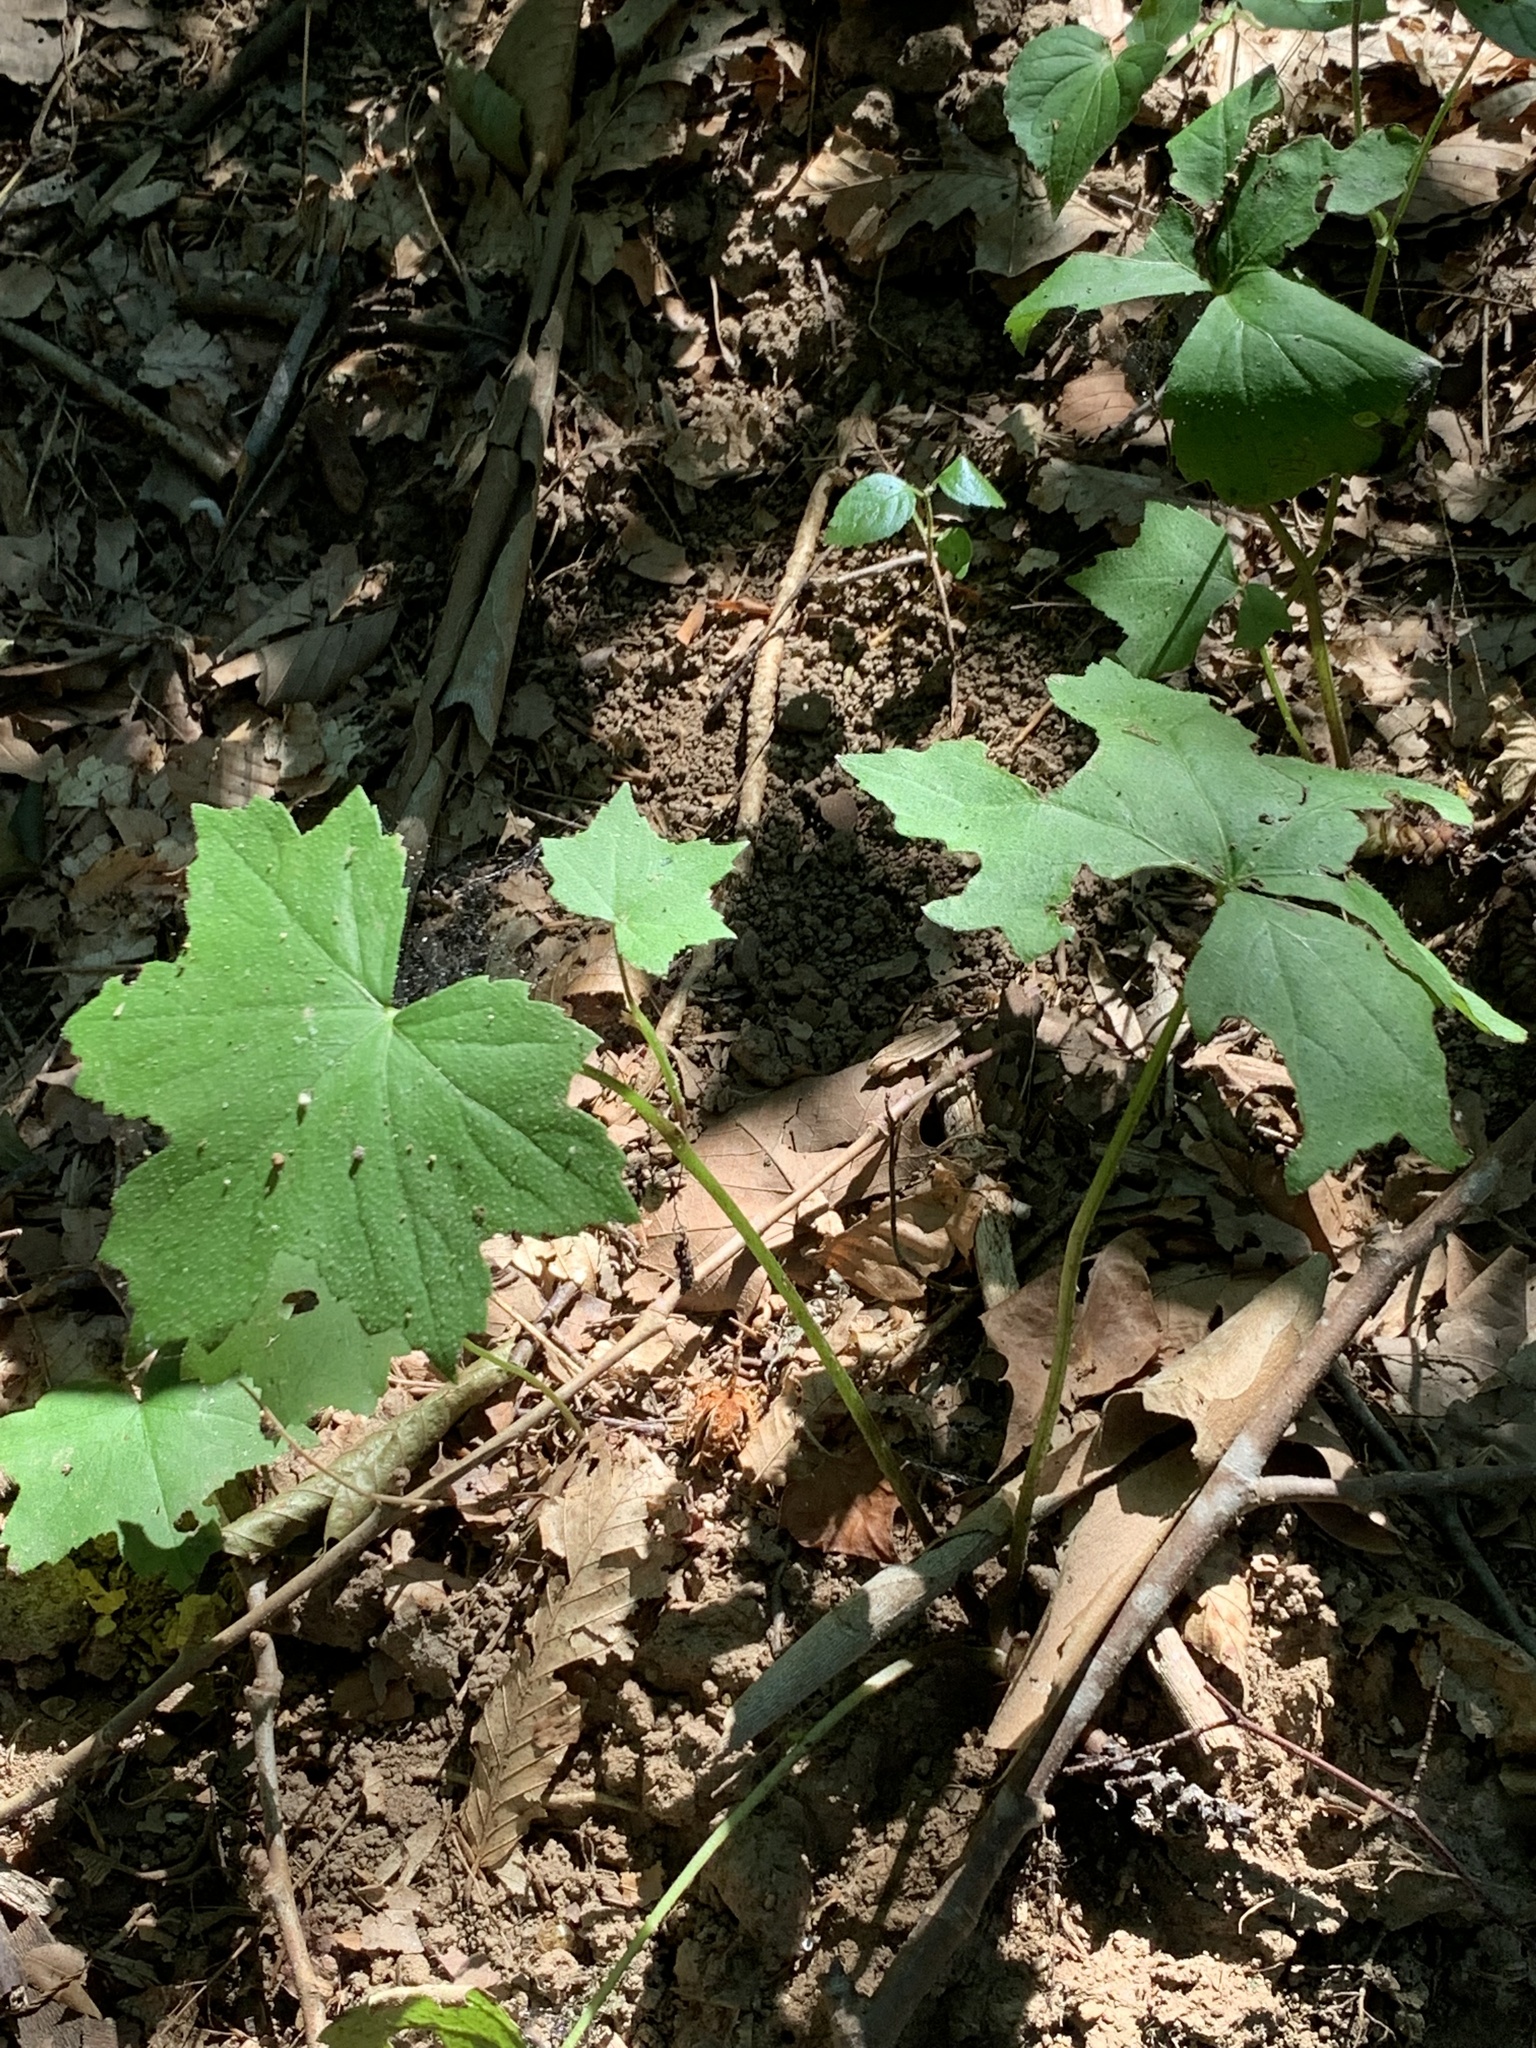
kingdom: Plantae
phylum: Tracheophyta
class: Magnoliopsida
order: Boraginales
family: Hydrophyllaceae
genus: Hydrophyllum
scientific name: Hydrophyllum canadense
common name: Canada waterleaf
